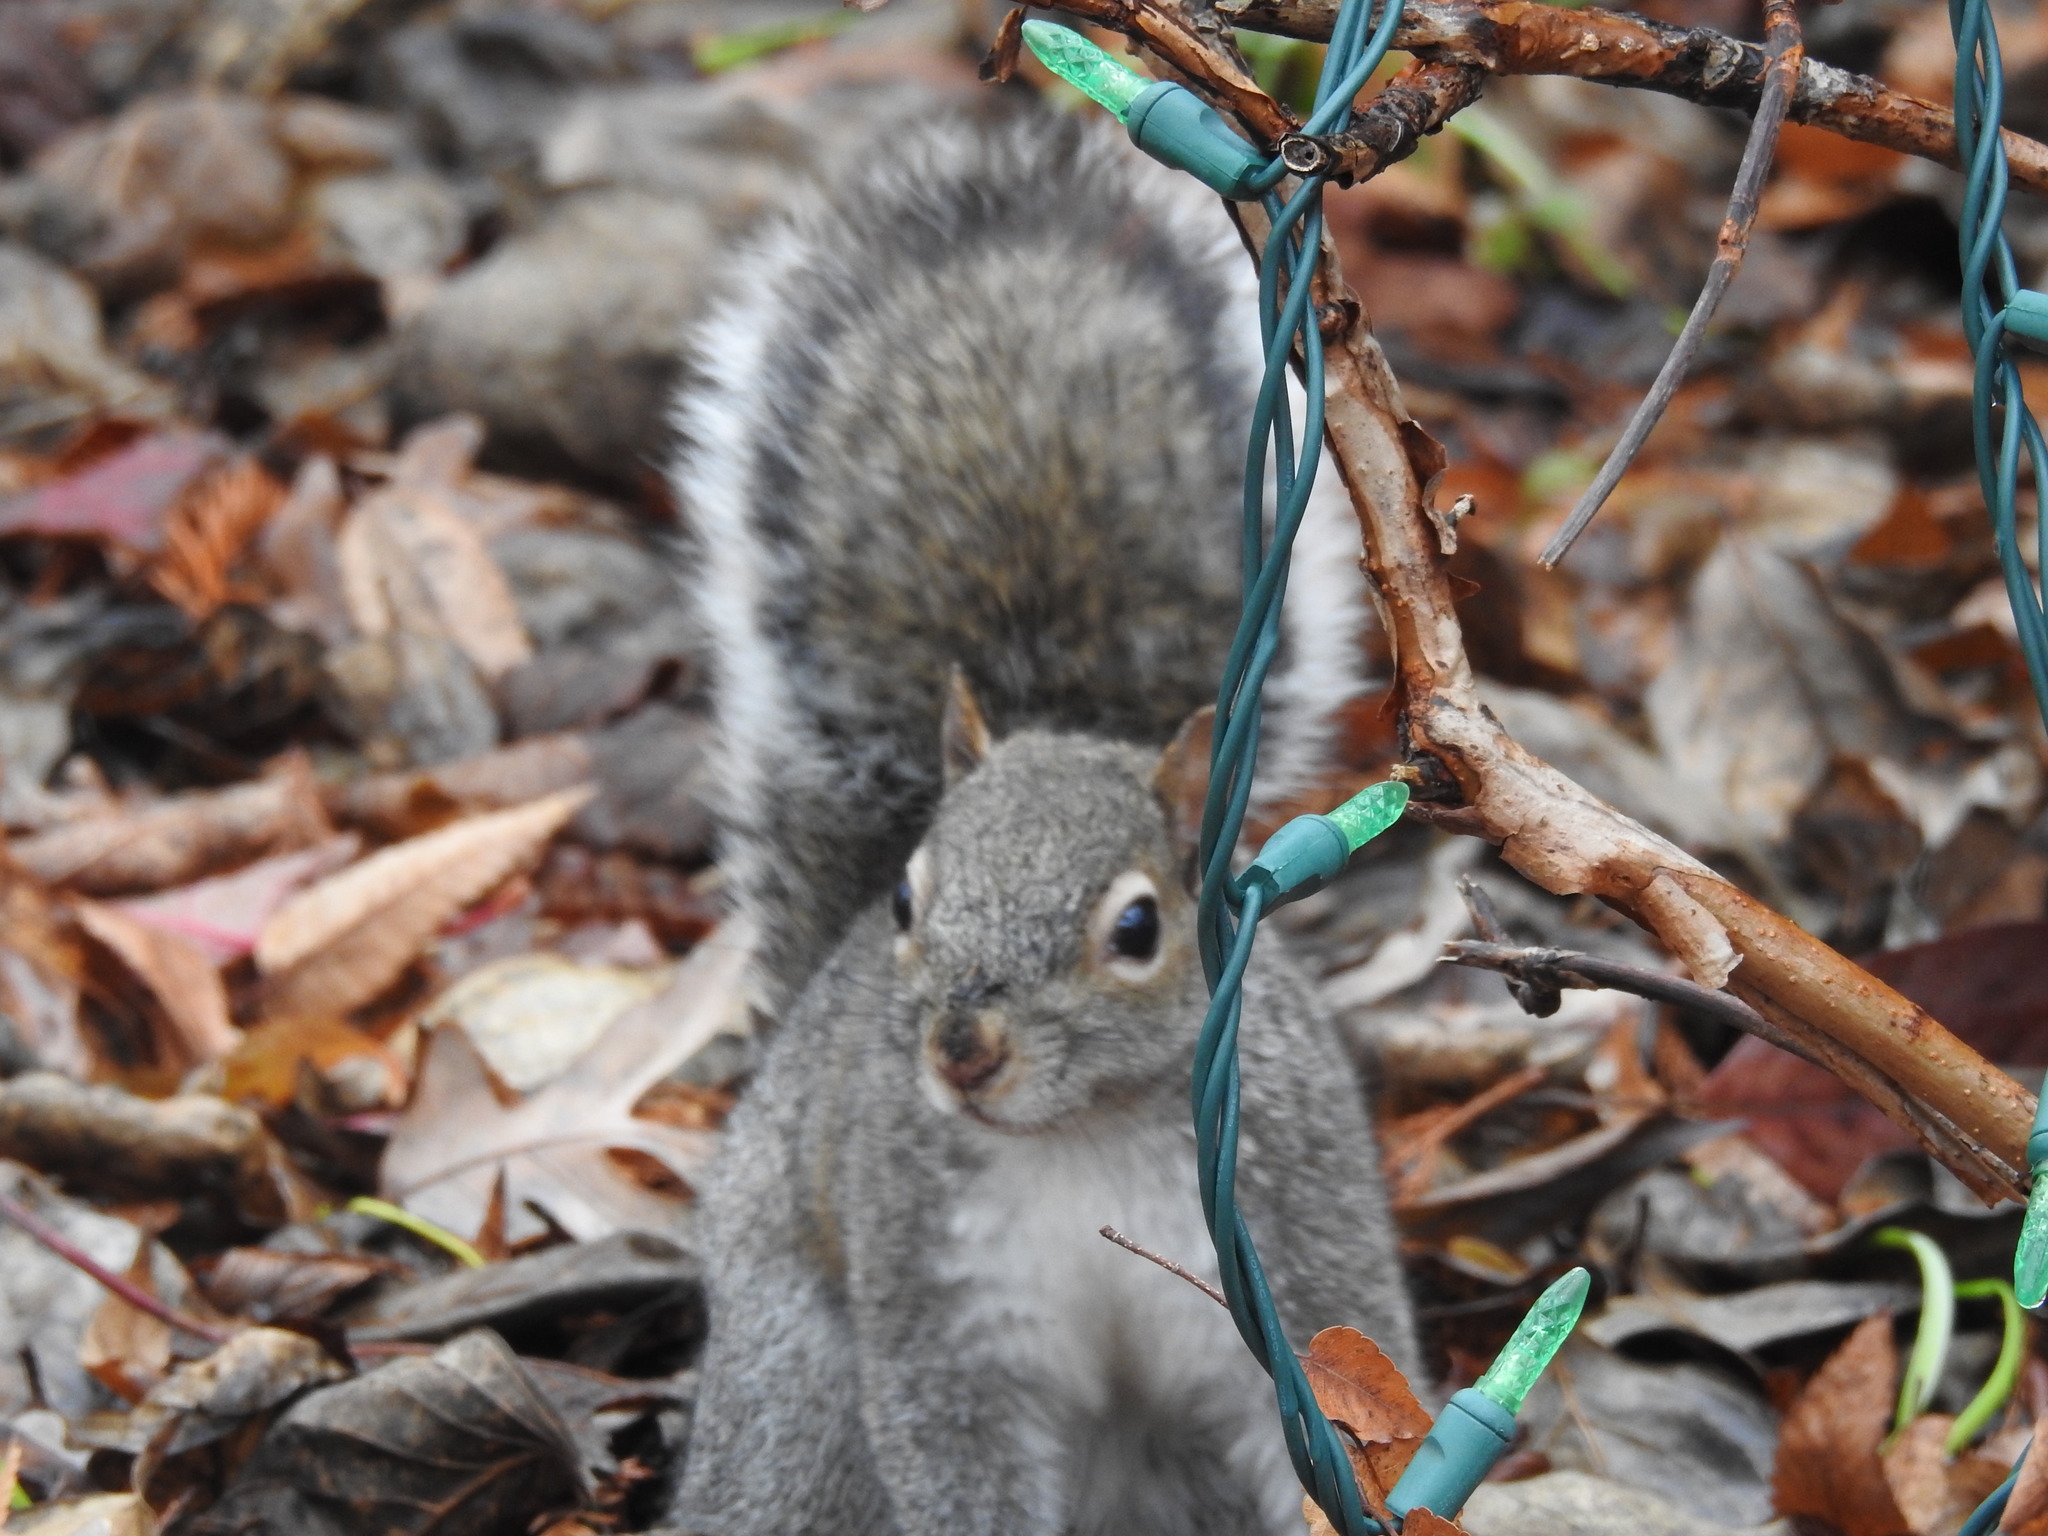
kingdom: Animalia
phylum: Chordata
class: Mammalia
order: Rodentia
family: Sciuridae
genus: Sciurus
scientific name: Sciurus carolinensis
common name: Eastern gray squirrel
